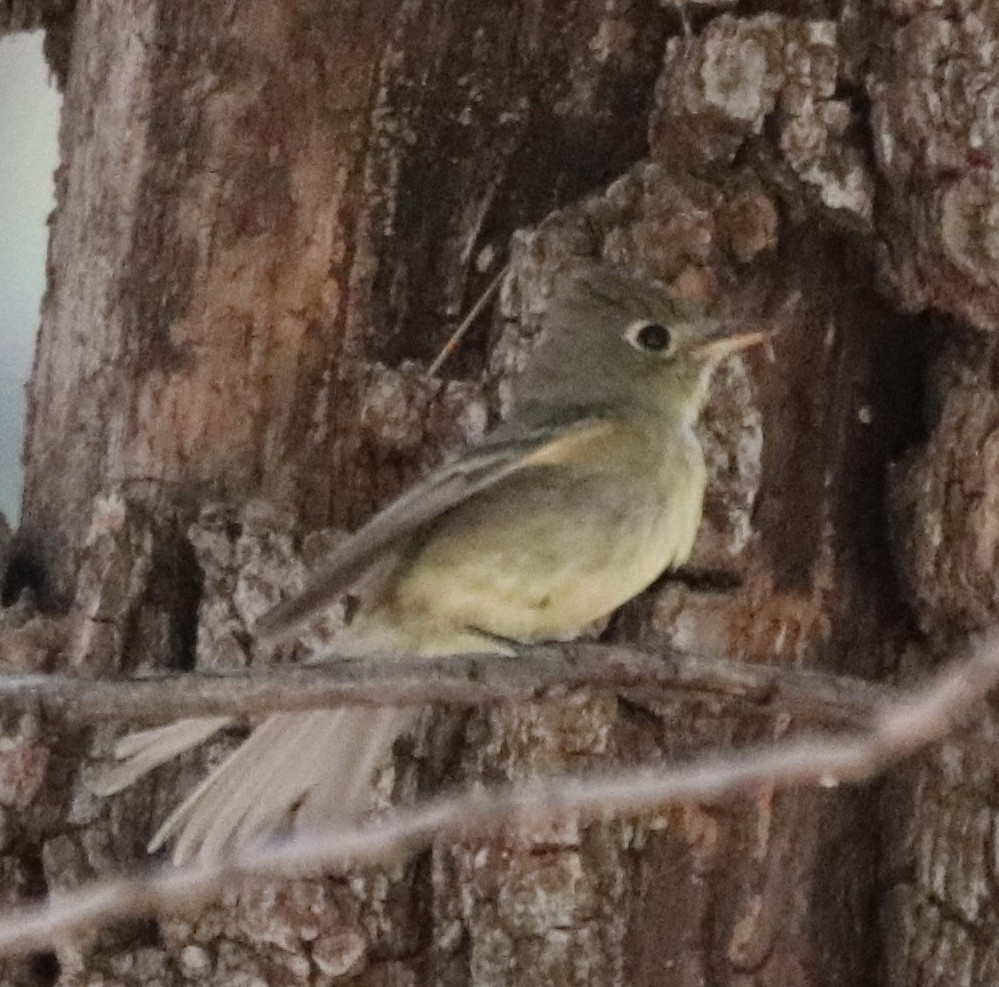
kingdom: Animalia
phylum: Chordata
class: Aves
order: Passeriformes
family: Tyrannidae
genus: Empidonax
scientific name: Empidonax difficilis
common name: Pacific-slope flycatcher
